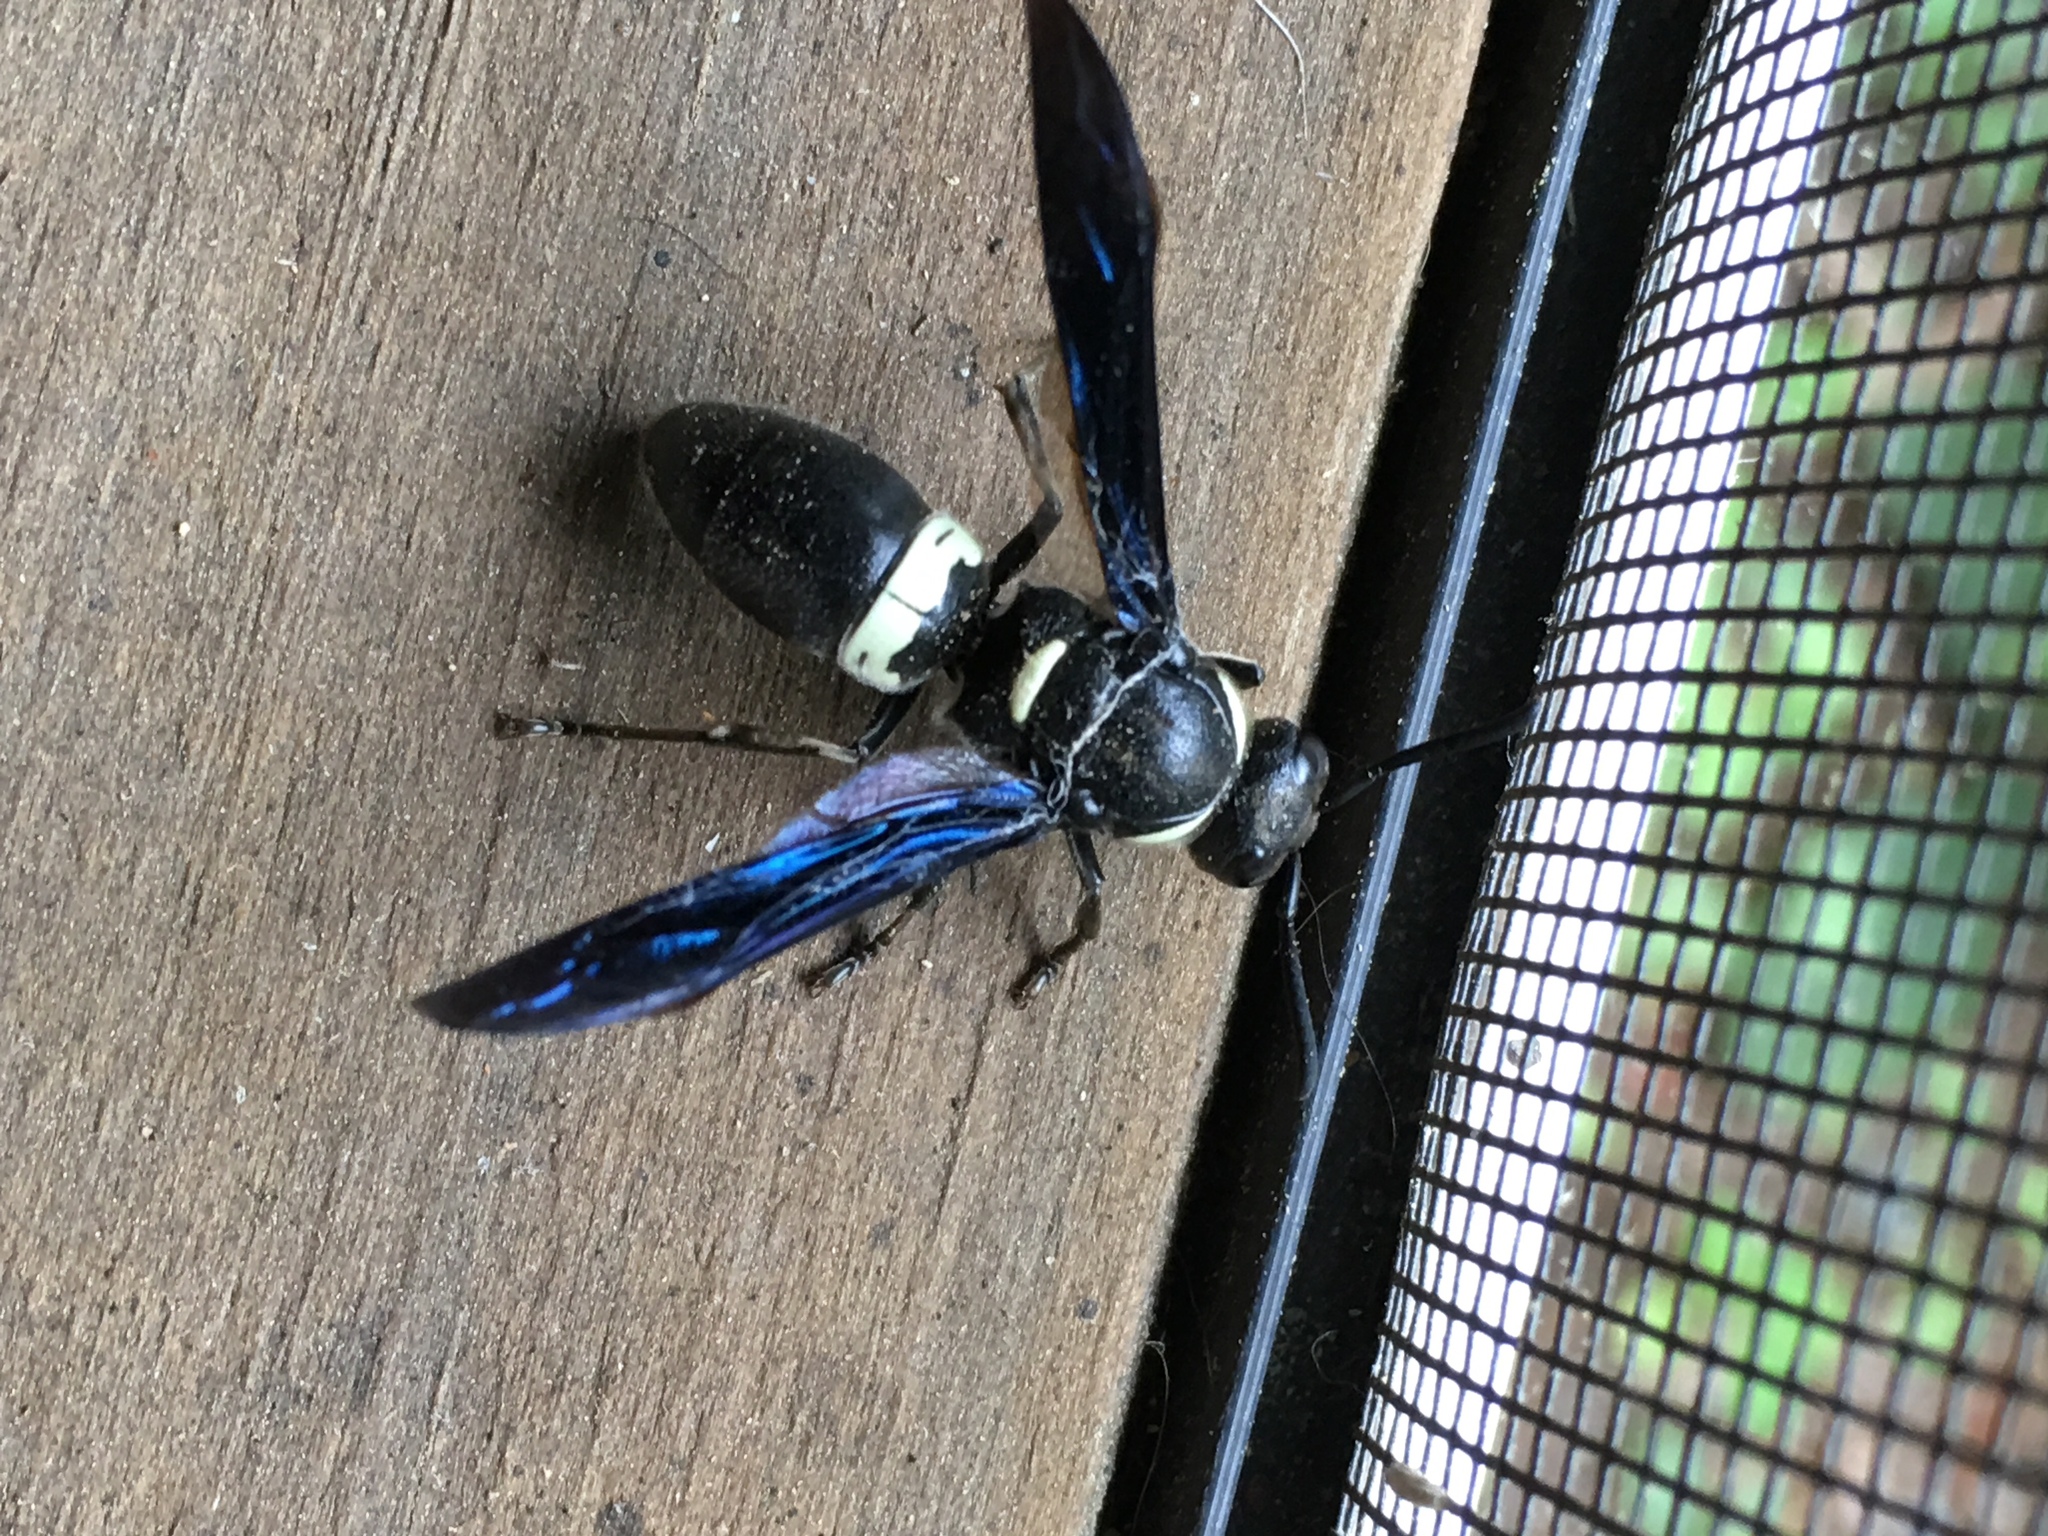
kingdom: Animalia
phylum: Arthropoda
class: Insecta
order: Hymenoptera
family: Eumenidae
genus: Monobia
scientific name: Monobia quadridens
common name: Four-toothed mason wasp
